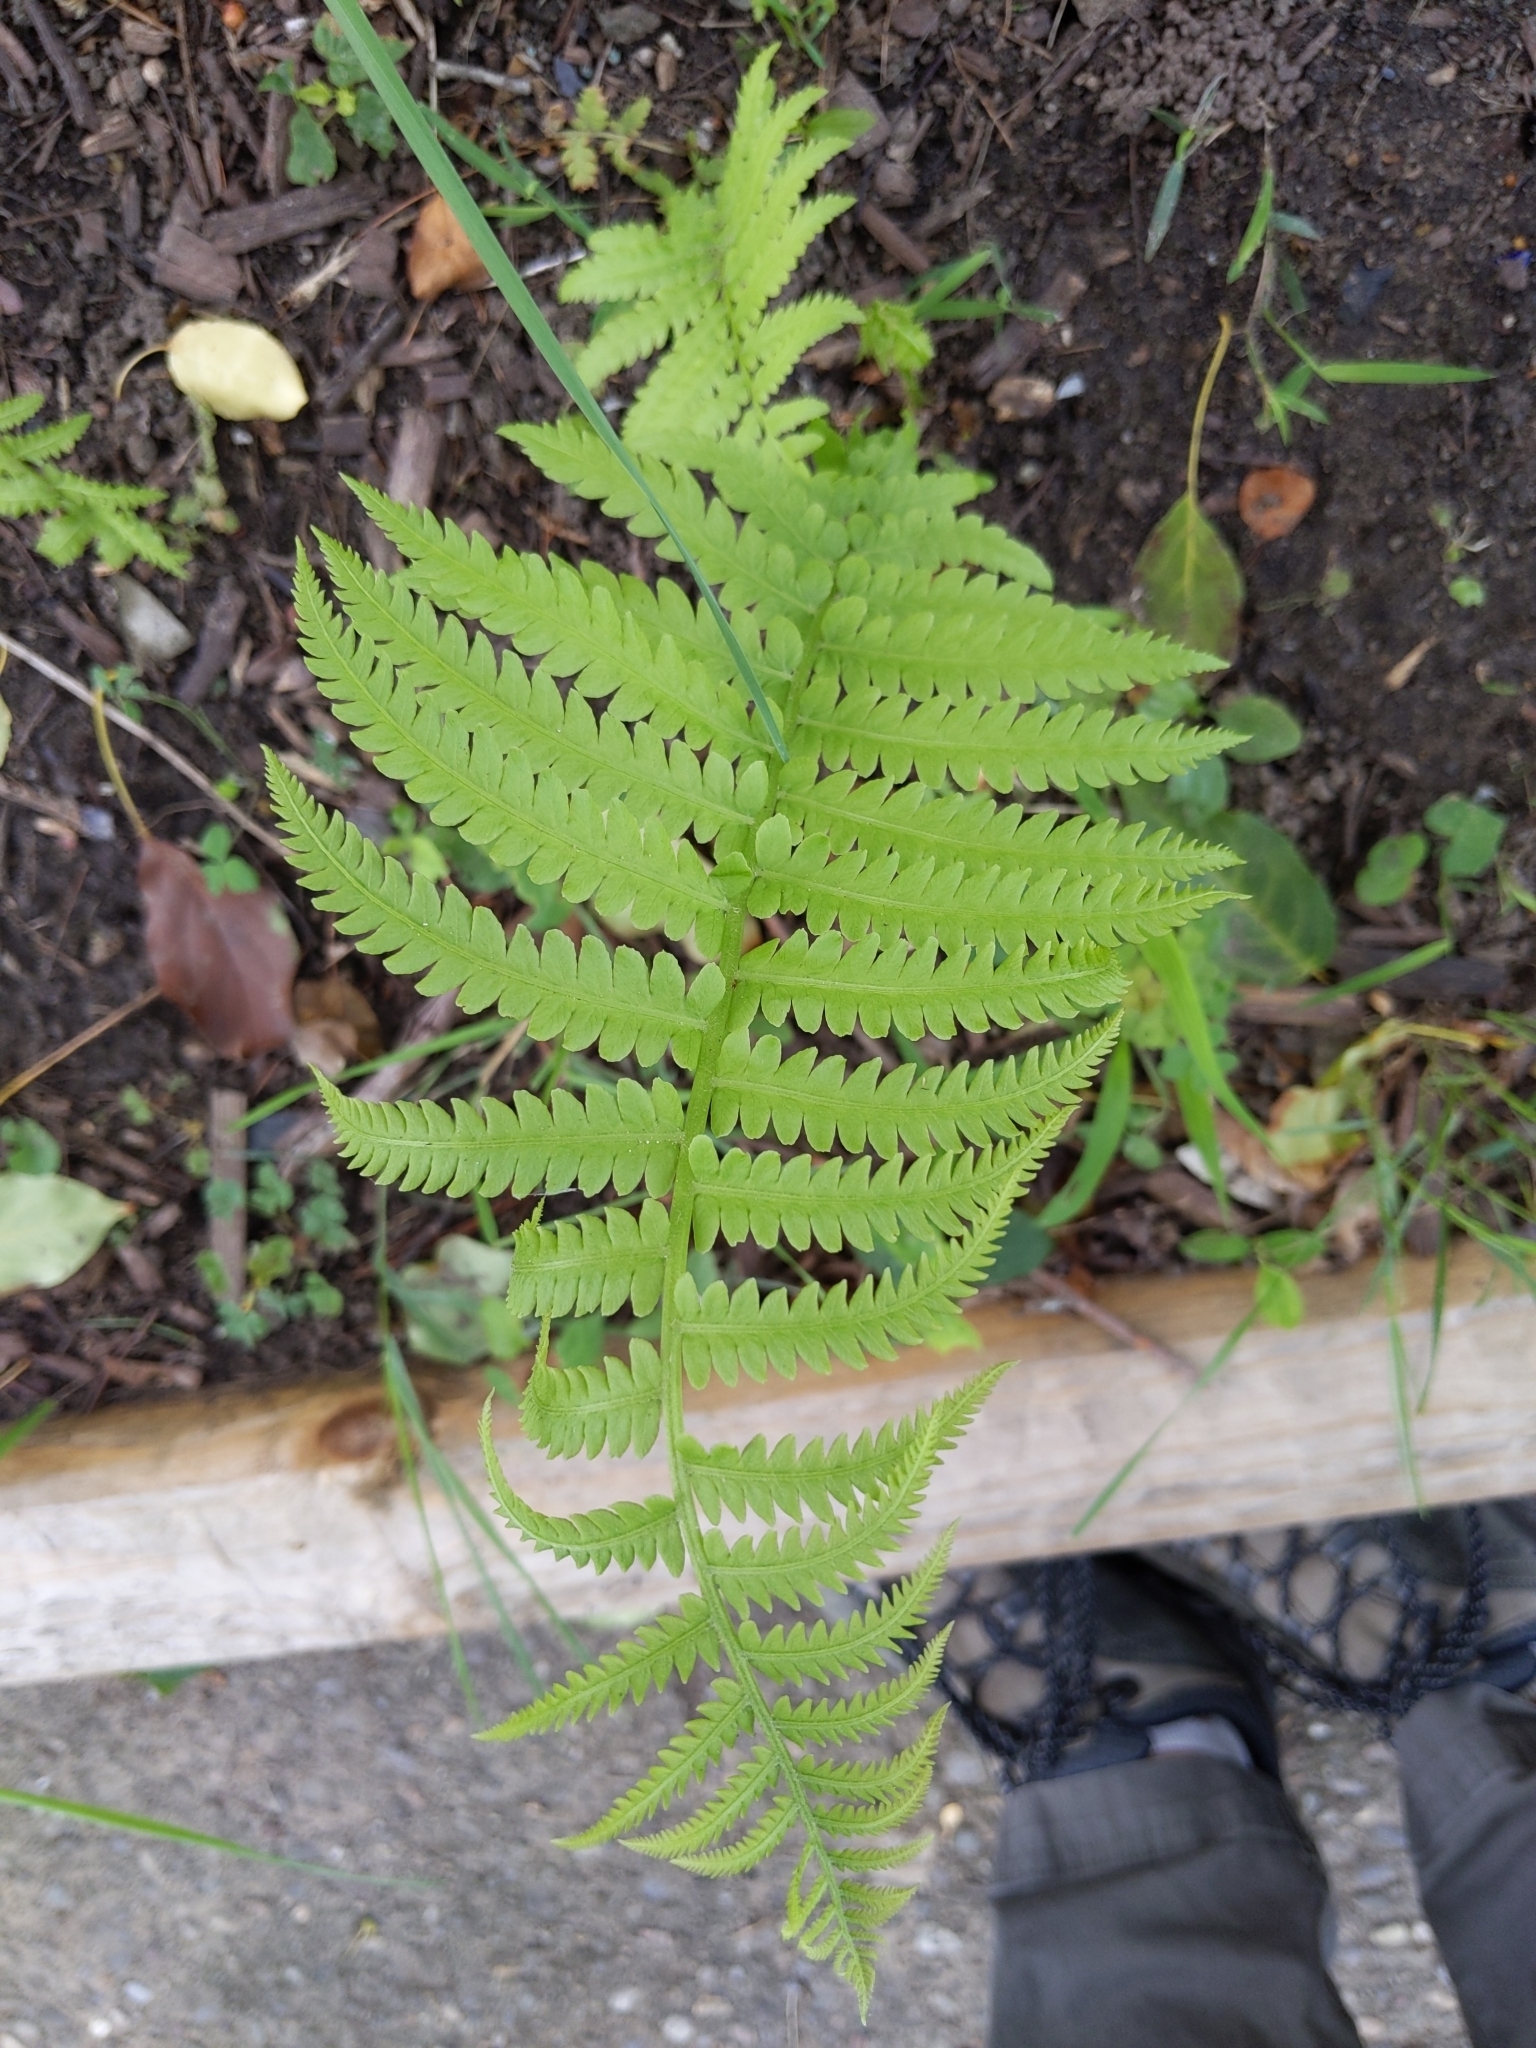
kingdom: Plantae
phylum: Tracheophyta
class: Polypodiopsida
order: Polypodiales
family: Onocleaceae
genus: Matteuccia
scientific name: Matteuccia struthiopteris
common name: Ostrich fern
